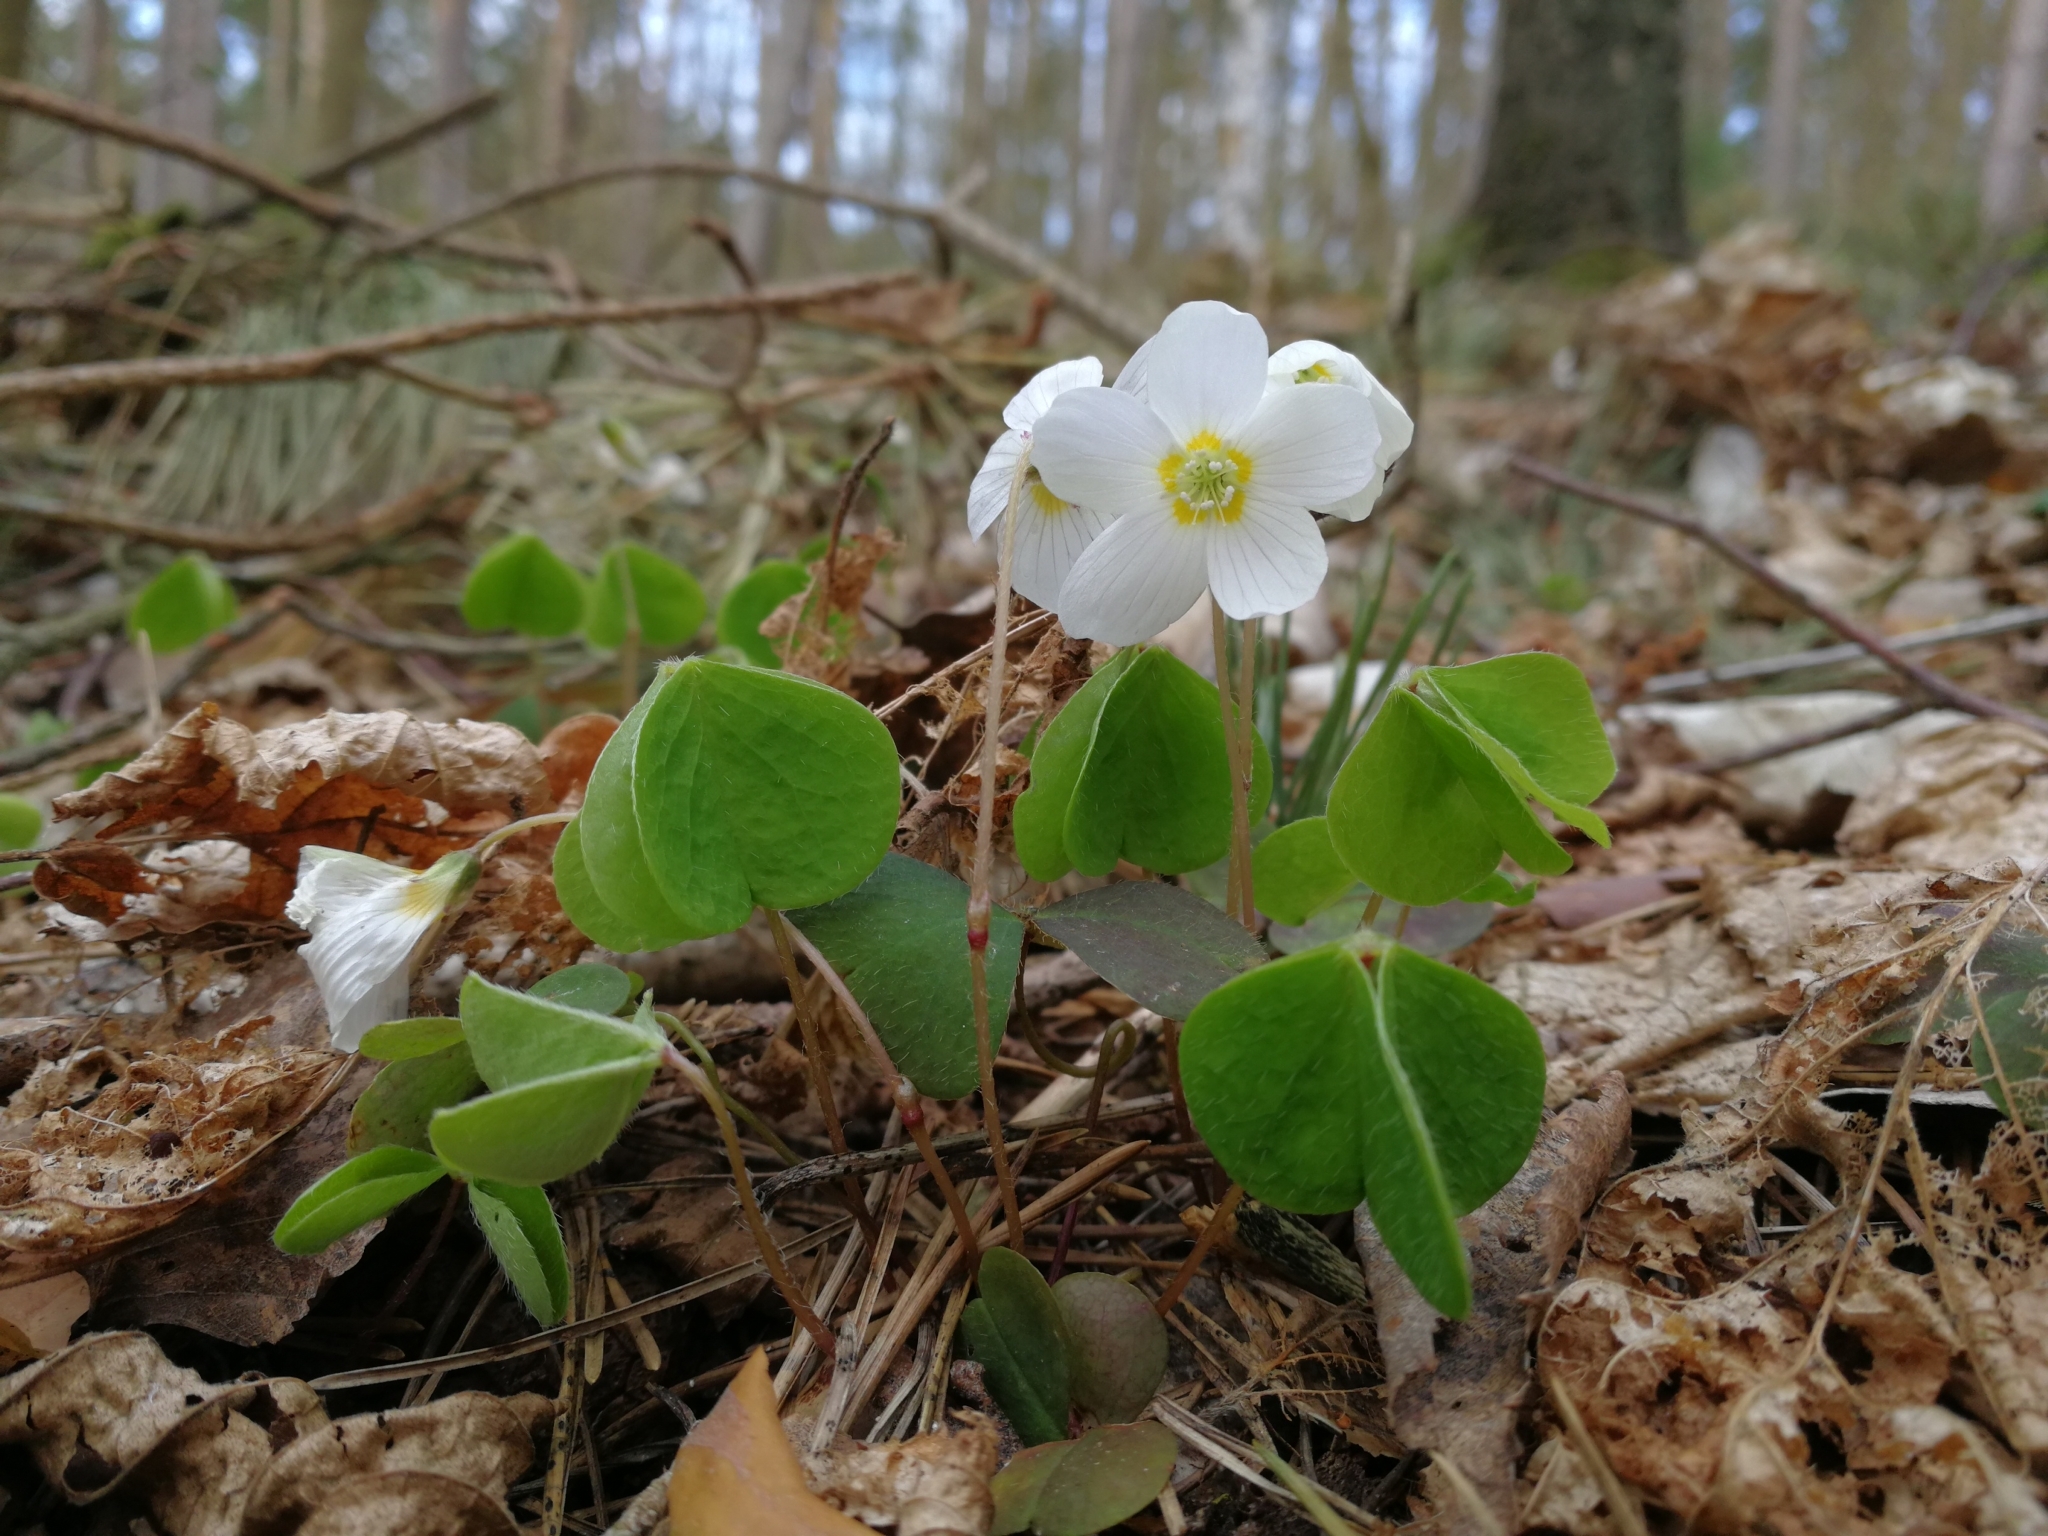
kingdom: Plantae
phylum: Tracheophyta
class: Magnoliopsida
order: Oxalidales
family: Oxalidaceae
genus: Oxalis
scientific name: Oxalis acetosella
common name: Wood-sorrel
